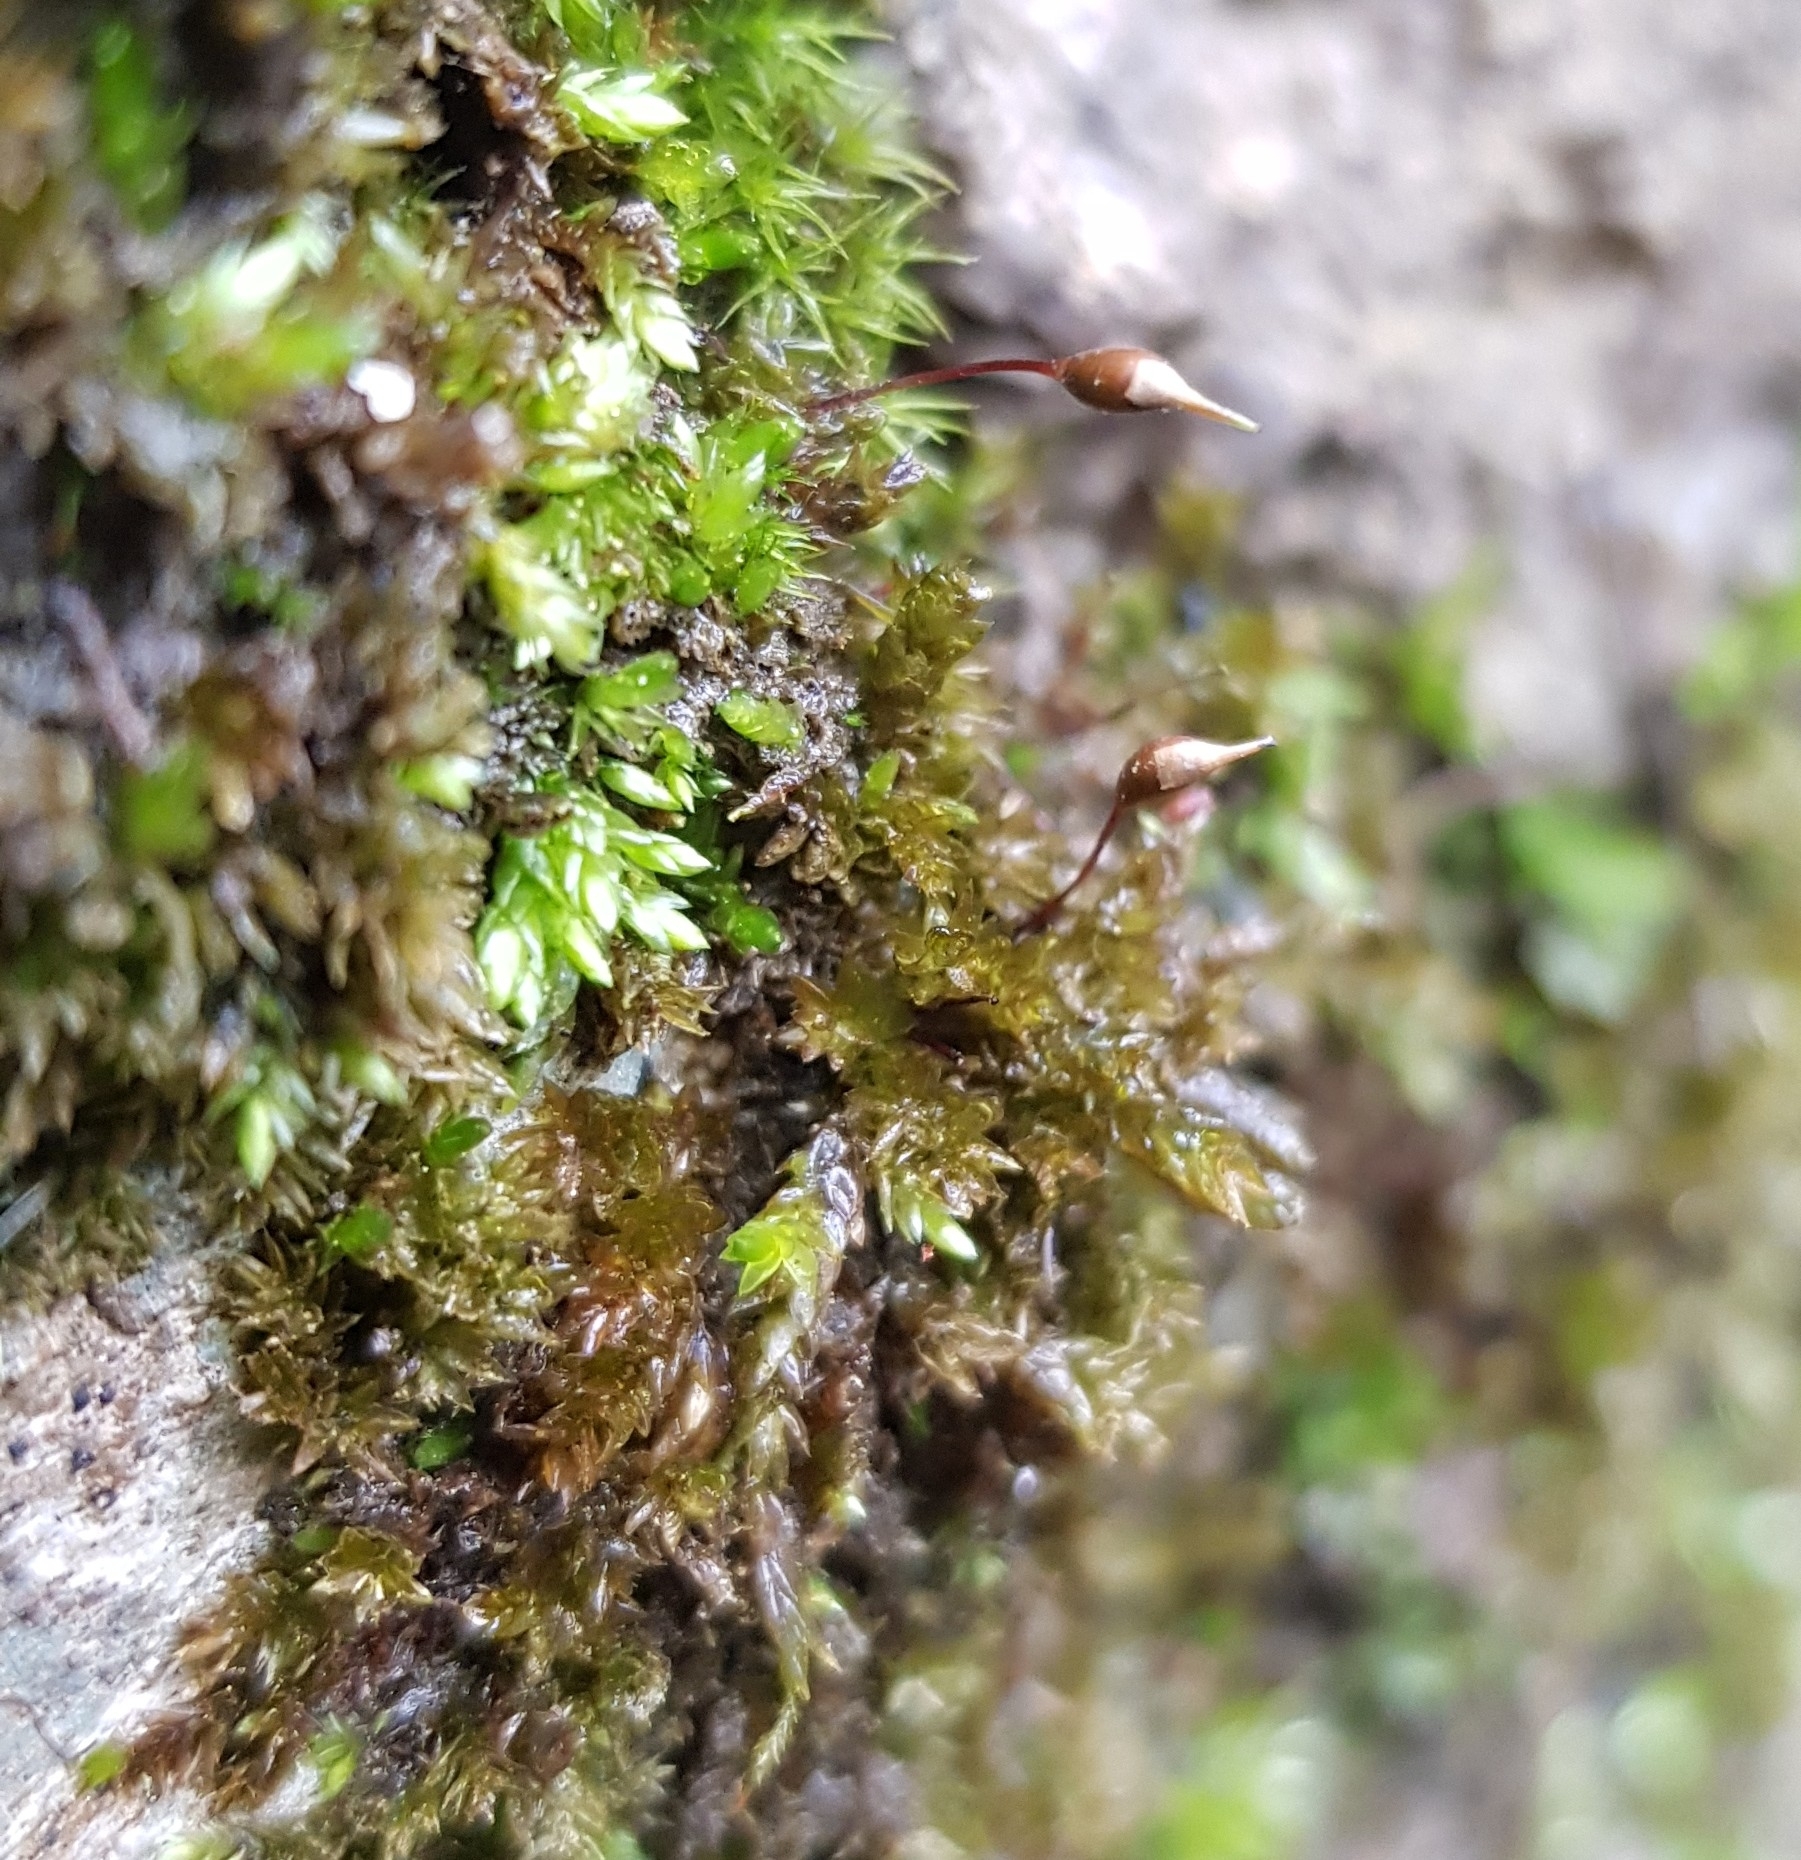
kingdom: Plantae
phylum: Bryophyta
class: Bryopsida
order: Hypnales
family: Brachytheciaceae
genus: Rhynchostegium
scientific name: Rhynchostegium murale
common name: Wall feather-moss
